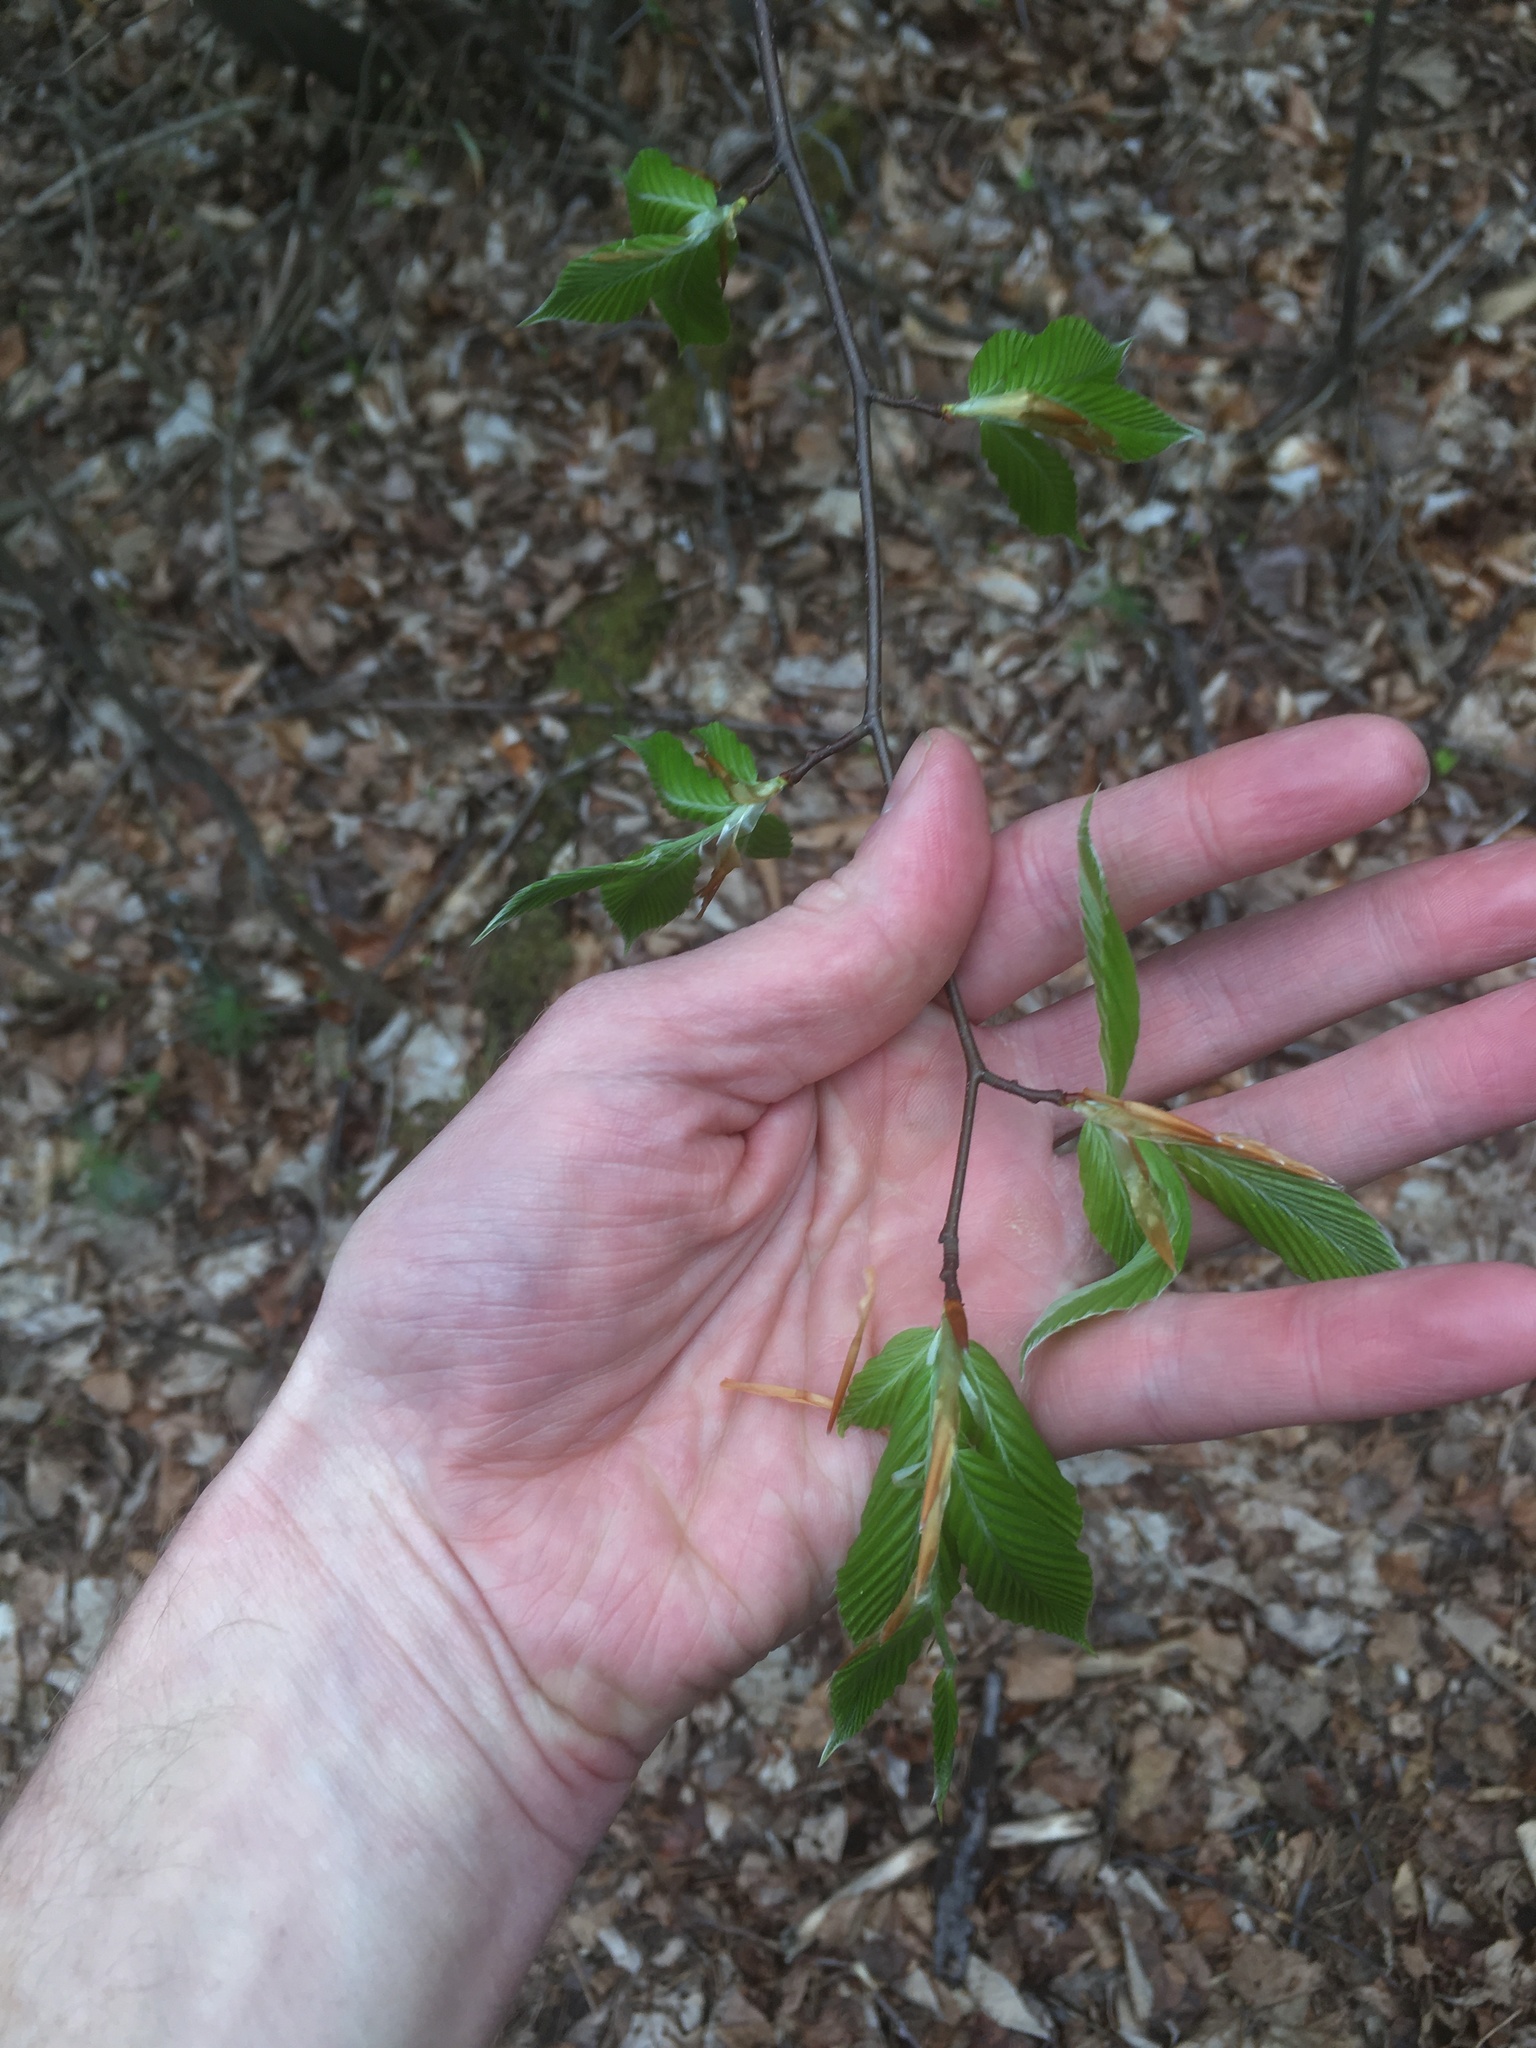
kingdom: Plantae
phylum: Tracheophyta
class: Magnoliopsida
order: Fagales
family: Fagaceae
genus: Fagus
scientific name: Fagus grandifolia
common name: American beech
